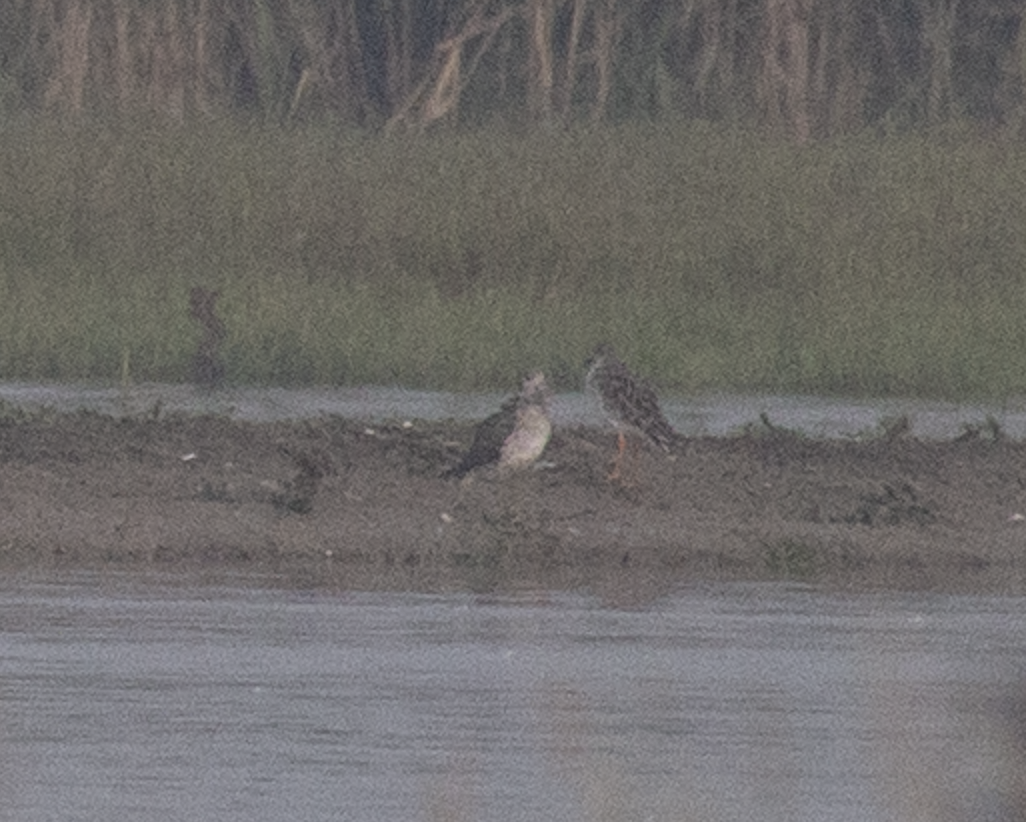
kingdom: Animalia
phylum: Chordata
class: Aves
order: Charadriiformes
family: Scolopacidae
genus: Calidris
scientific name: Calidris pugnax
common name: Ruff
